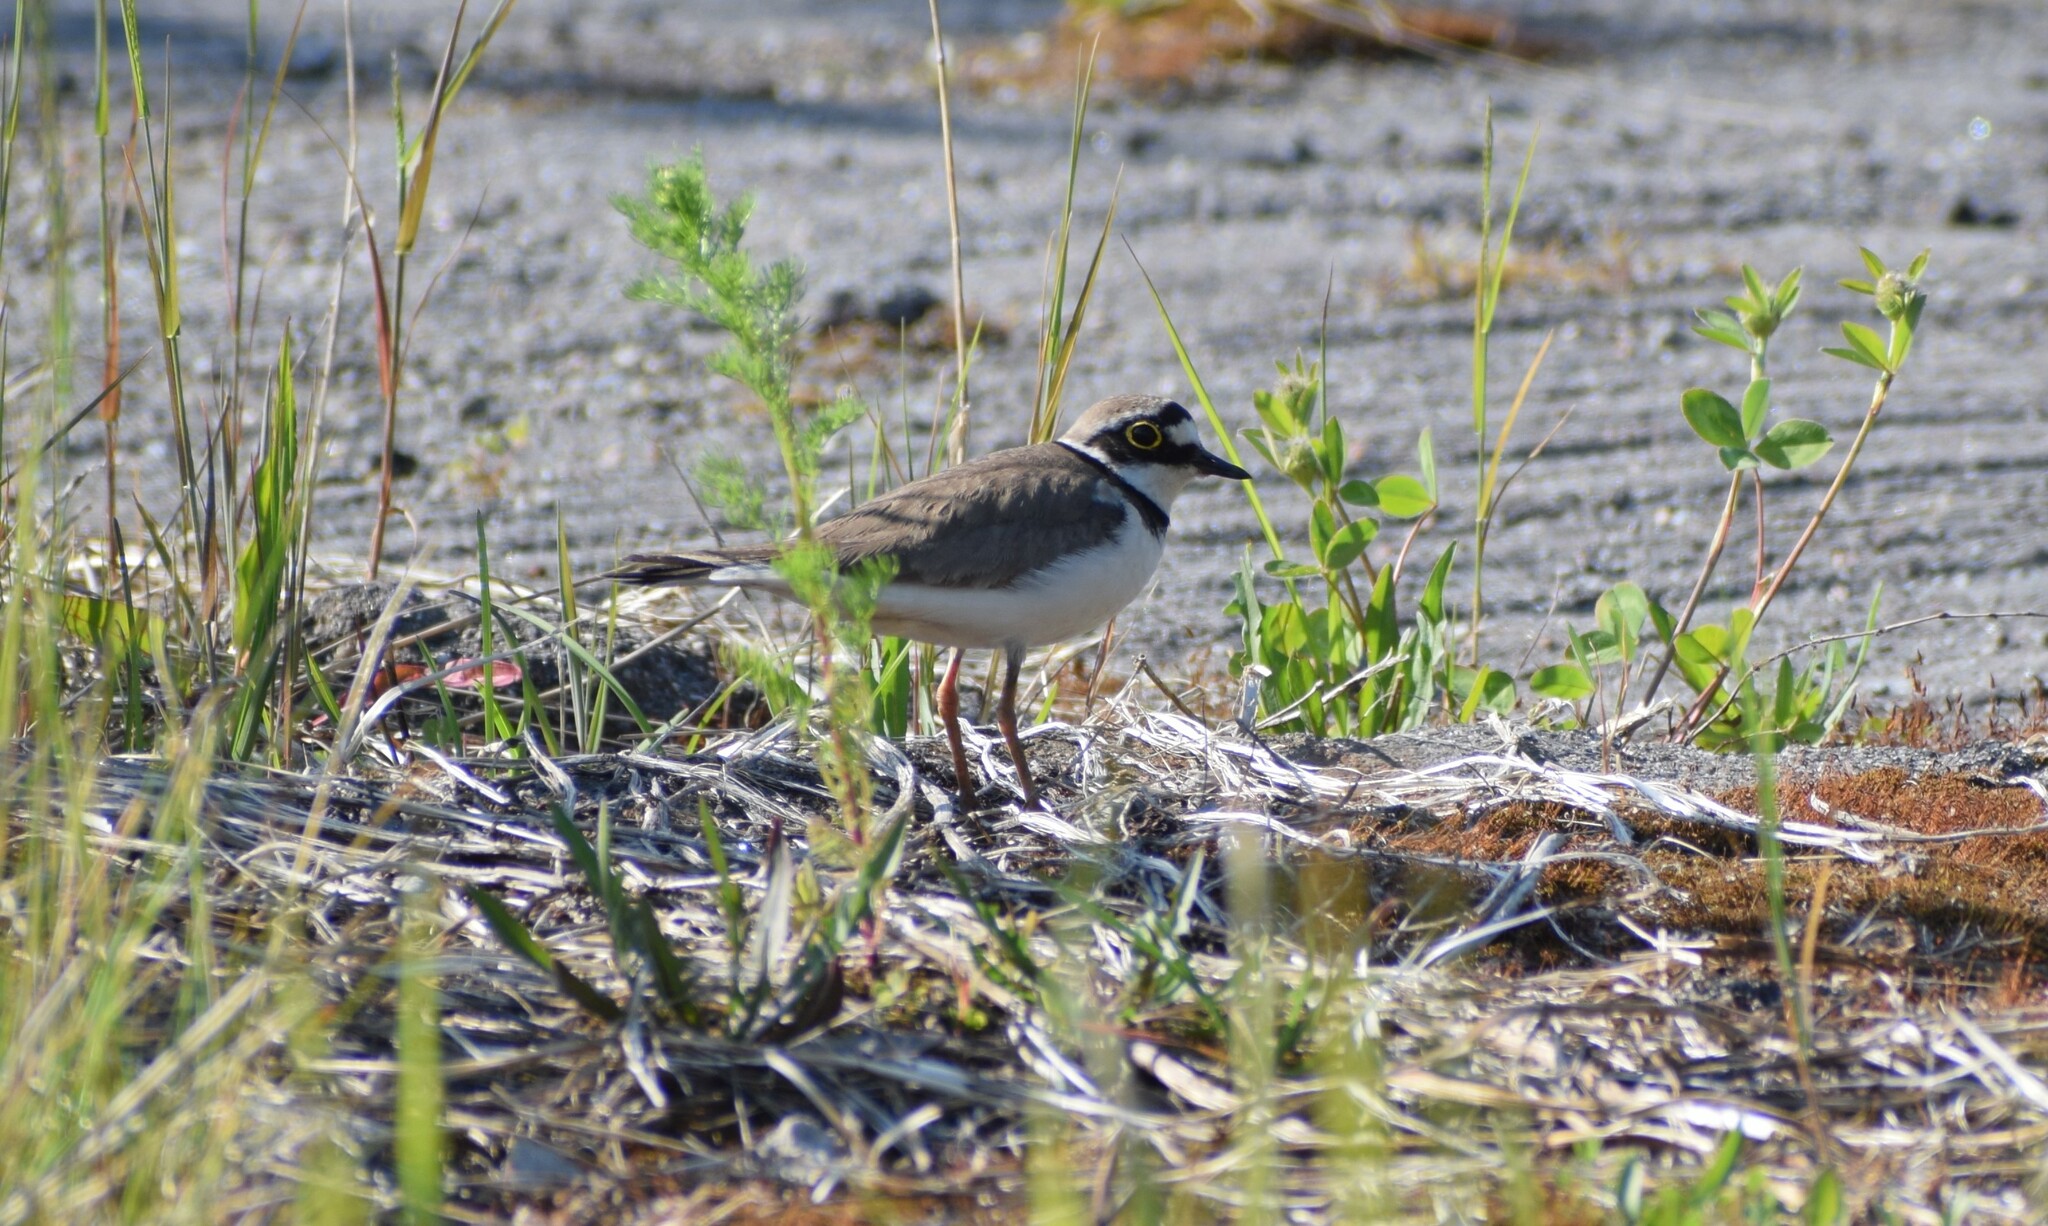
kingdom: Animalia
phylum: Chordata
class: Aves
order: Charadriiformes
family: Charadriidae
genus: Charadrius
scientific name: Charadrius dubius
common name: Little ringed plover
